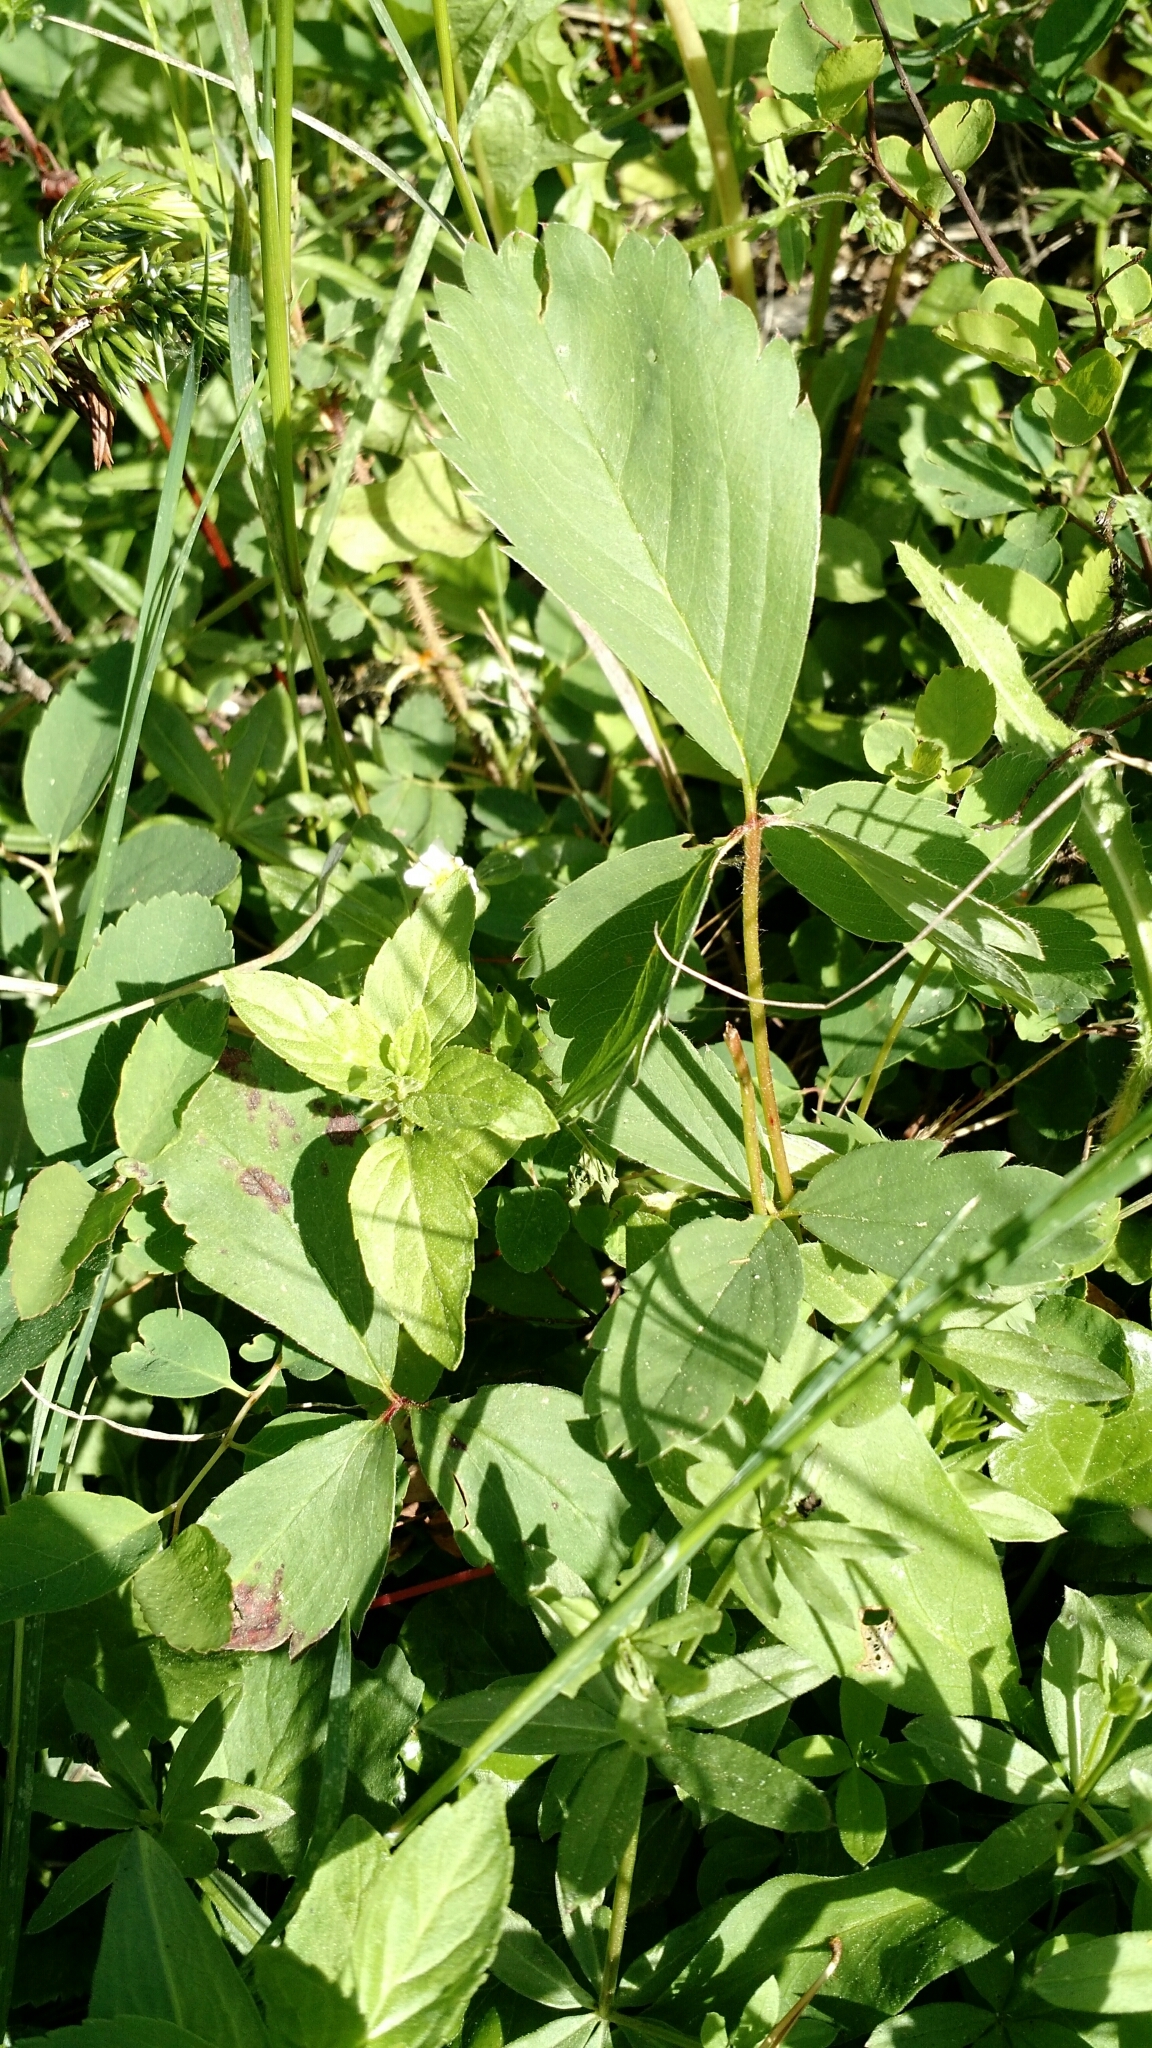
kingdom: Plantae
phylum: Tracheophyta
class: Magnoliopsida
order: Rosales
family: Rosaceae
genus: Fragaria
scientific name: Fragaria virginiana
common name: Thickleaved wild strawberry
